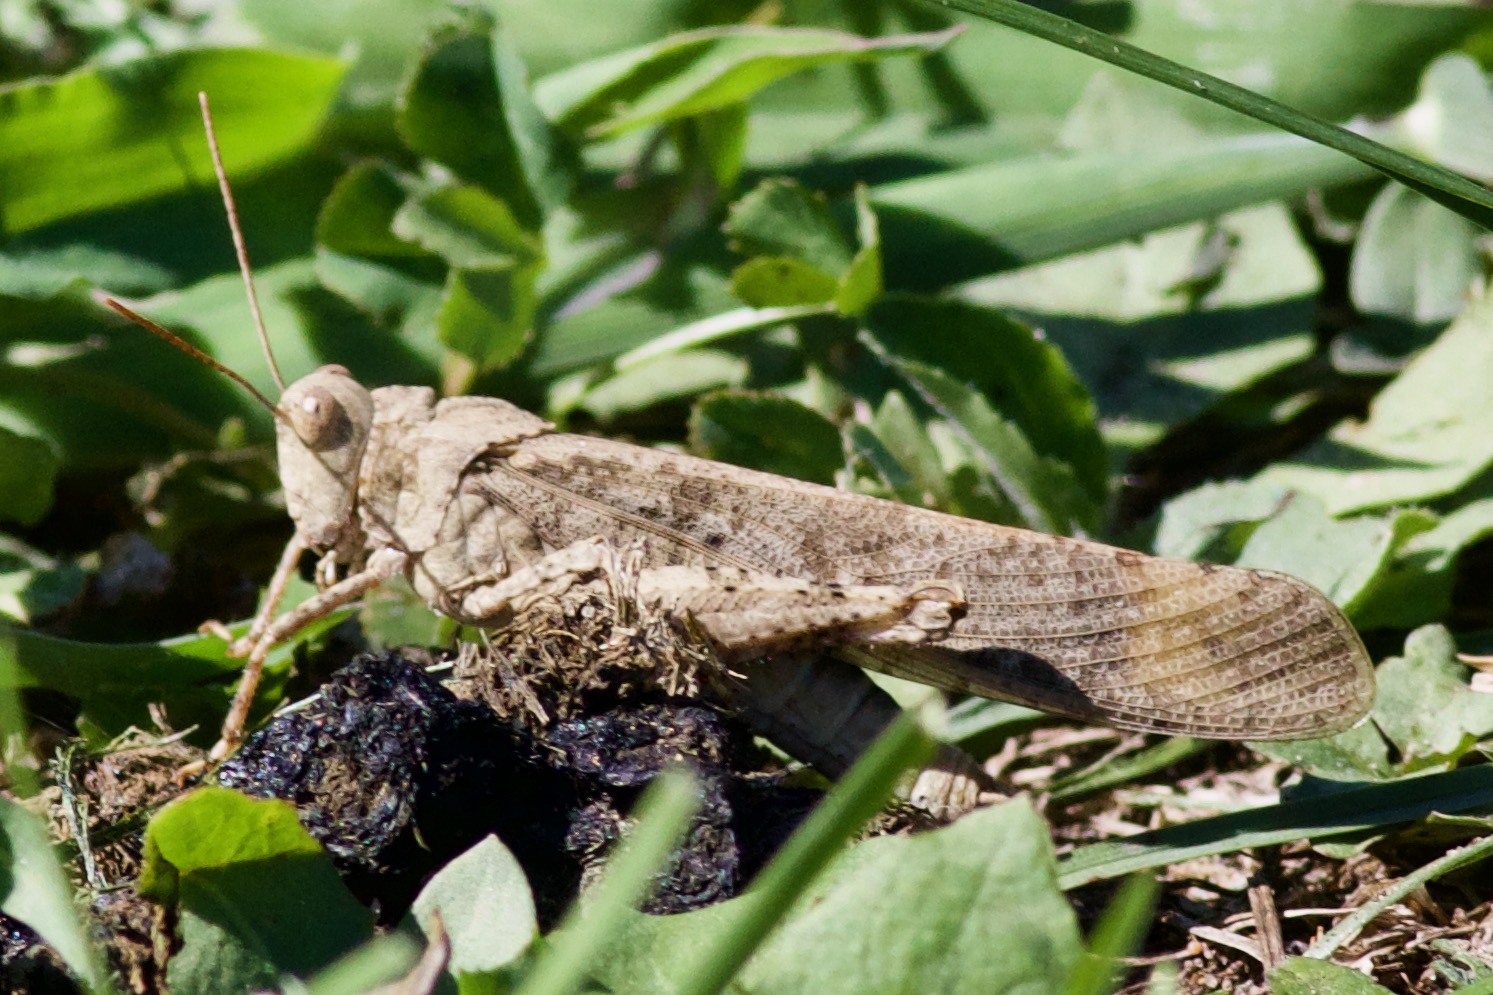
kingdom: Animalia
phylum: Arthropoda
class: Insecta
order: Orthoptera
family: Acrididae
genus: Dissosteira
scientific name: Dissosteira carolina
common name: Carolina grasshopper
